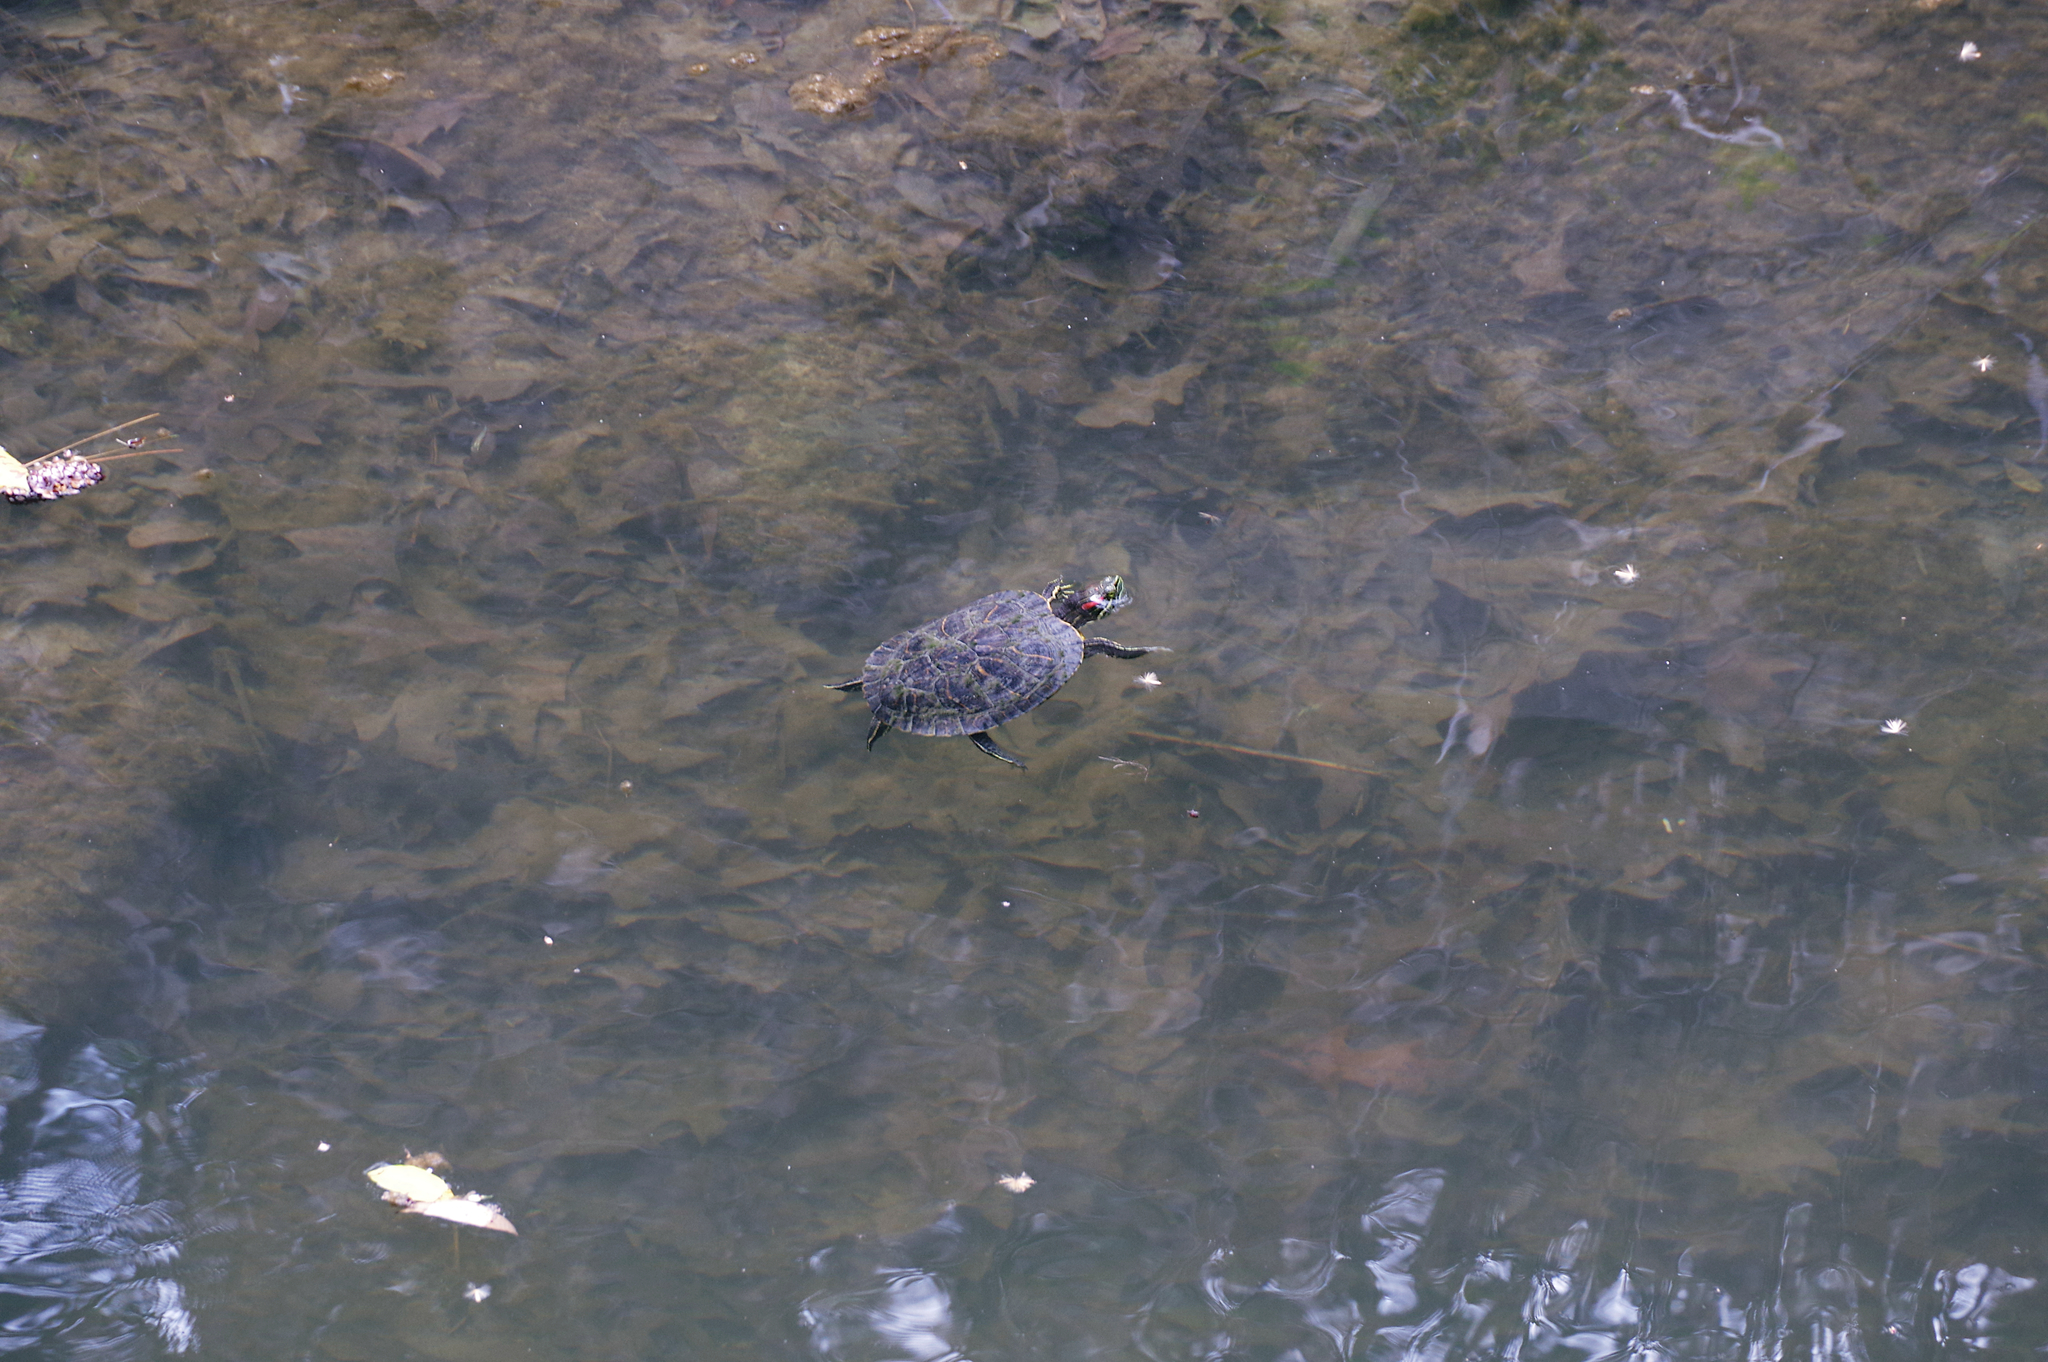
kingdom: Animalia
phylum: Chordata
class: Testudines
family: Emydidae
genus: Trachemys
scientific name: Trachemys scripta
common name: Slider
